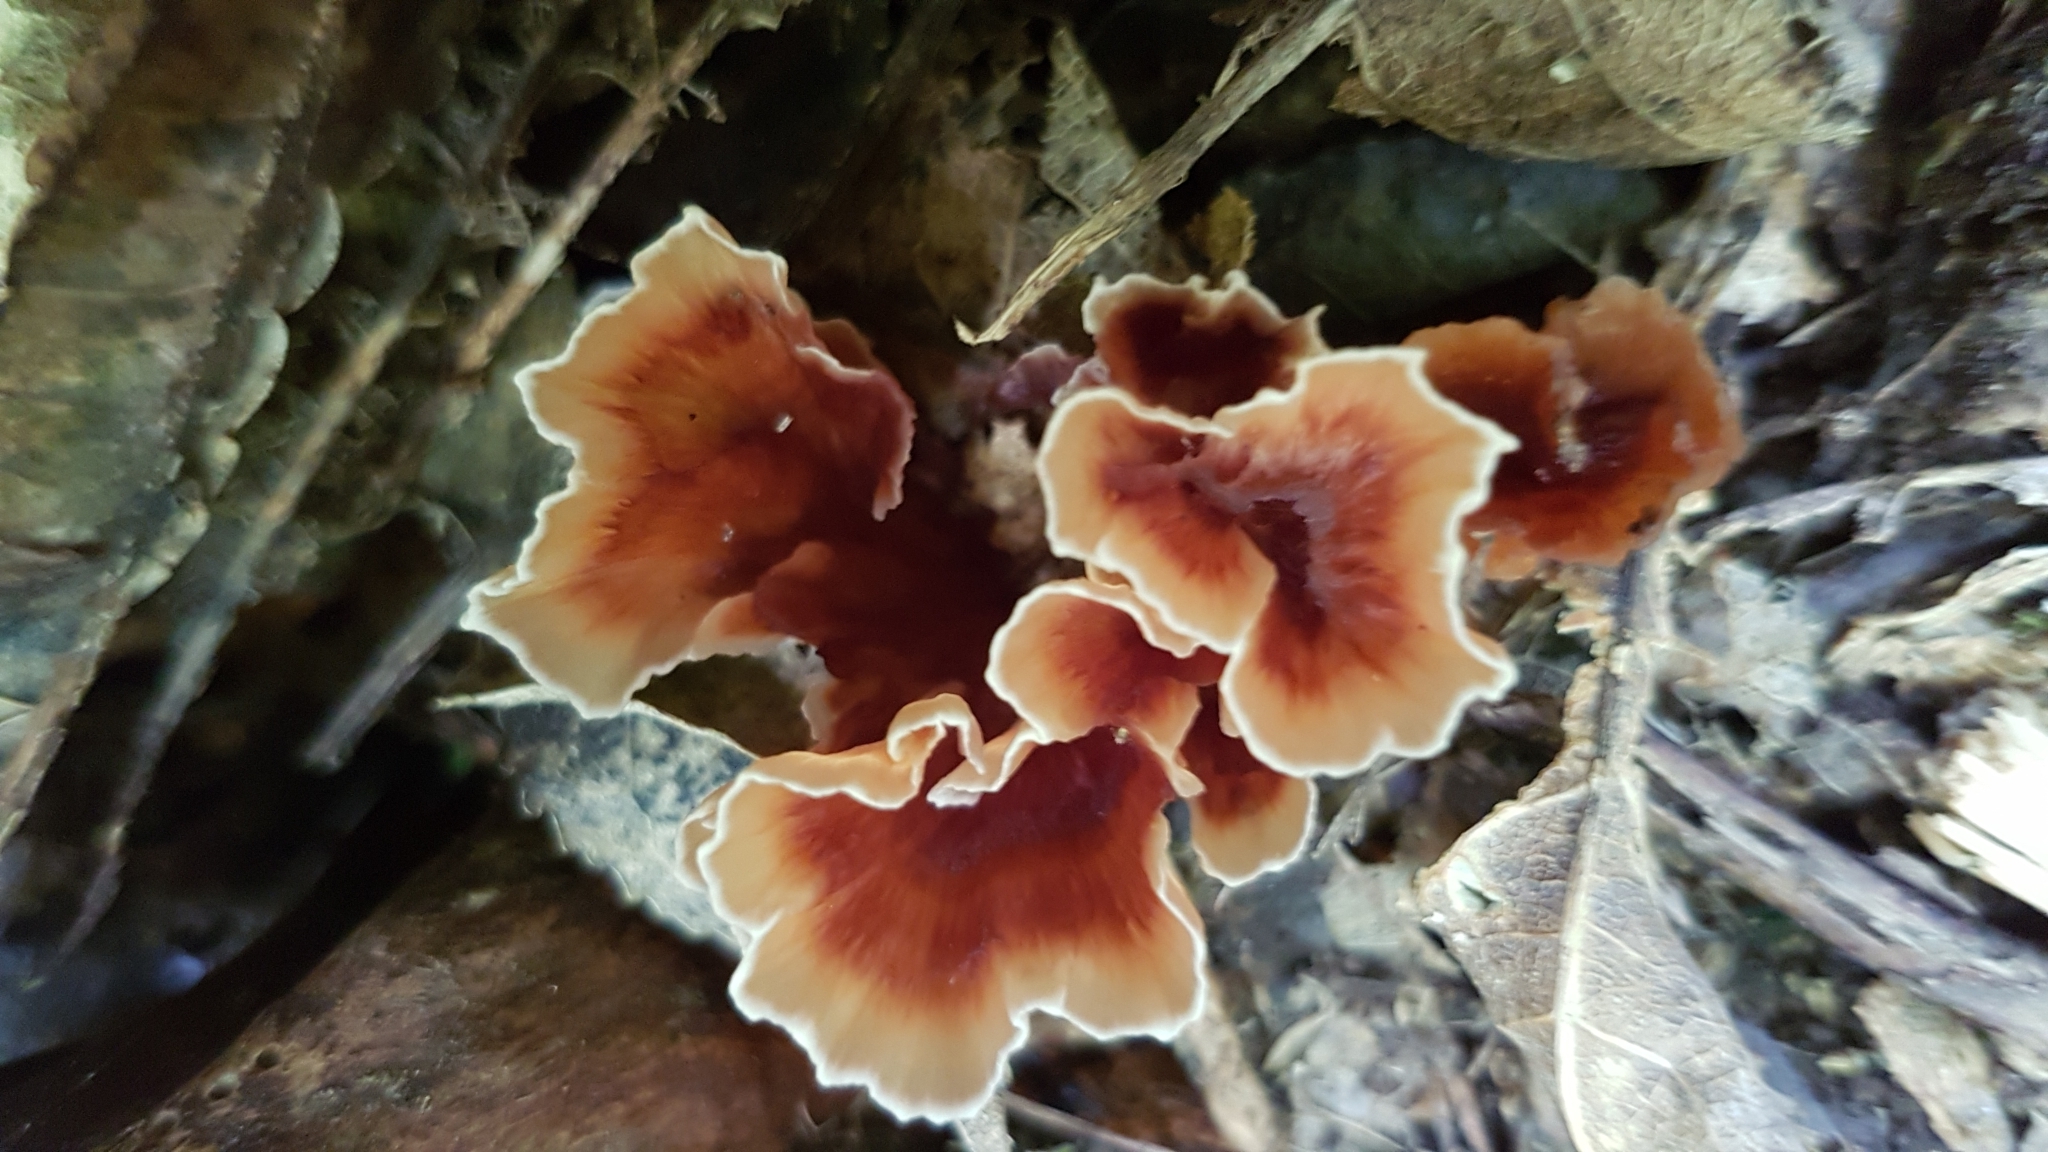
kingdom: Fungi
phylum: Basidiomycota
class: Agaricomycetes
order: Polyporales
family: Podoscyphaceae
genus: Podoscypha
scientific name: Podoscypha petalodes
